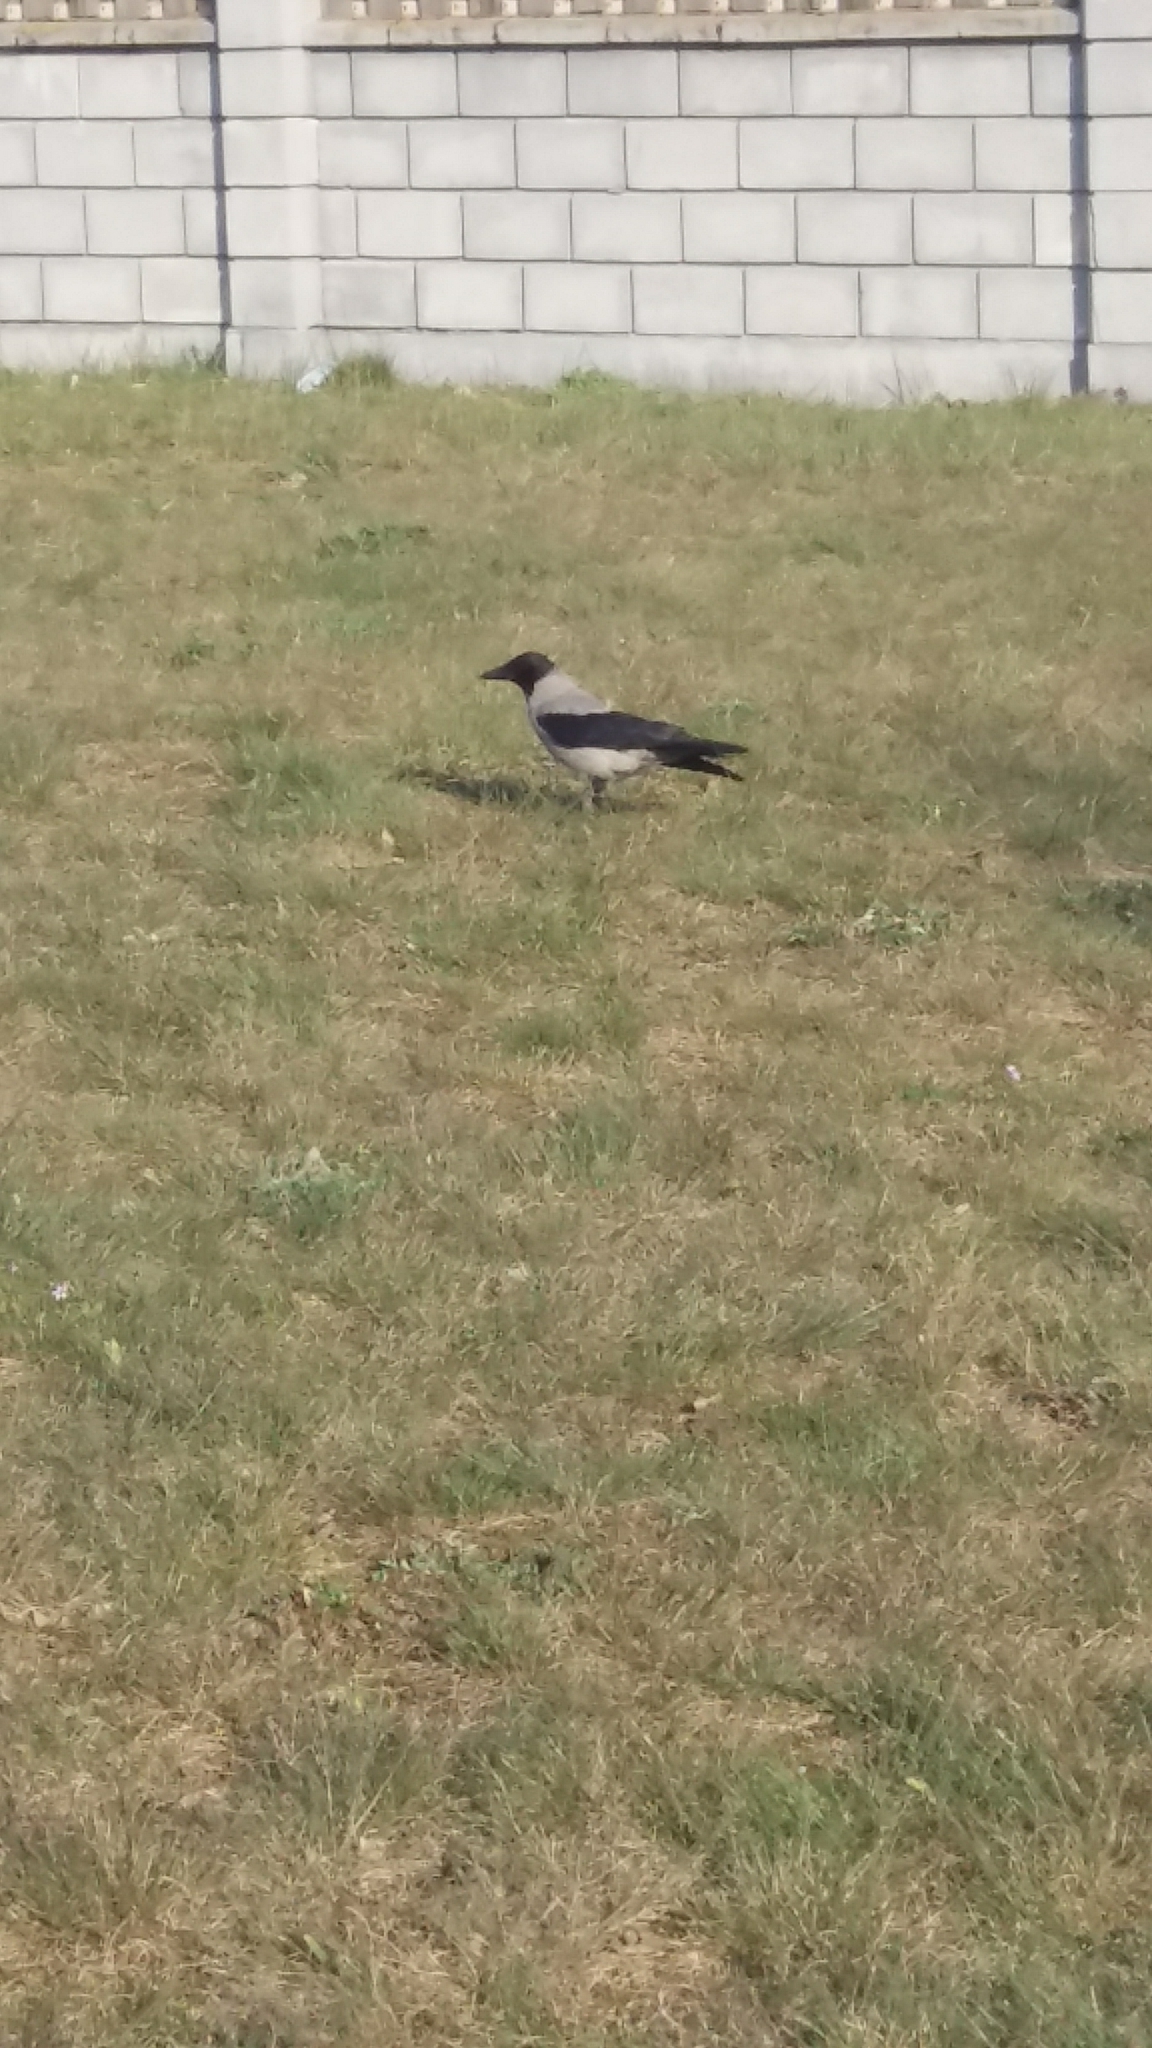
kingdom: Animalia
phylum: Chordata
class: Aves
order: Passeriformes
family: Corvidae
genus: Corvus
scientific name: Corvus cornix
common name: Hooded crow
